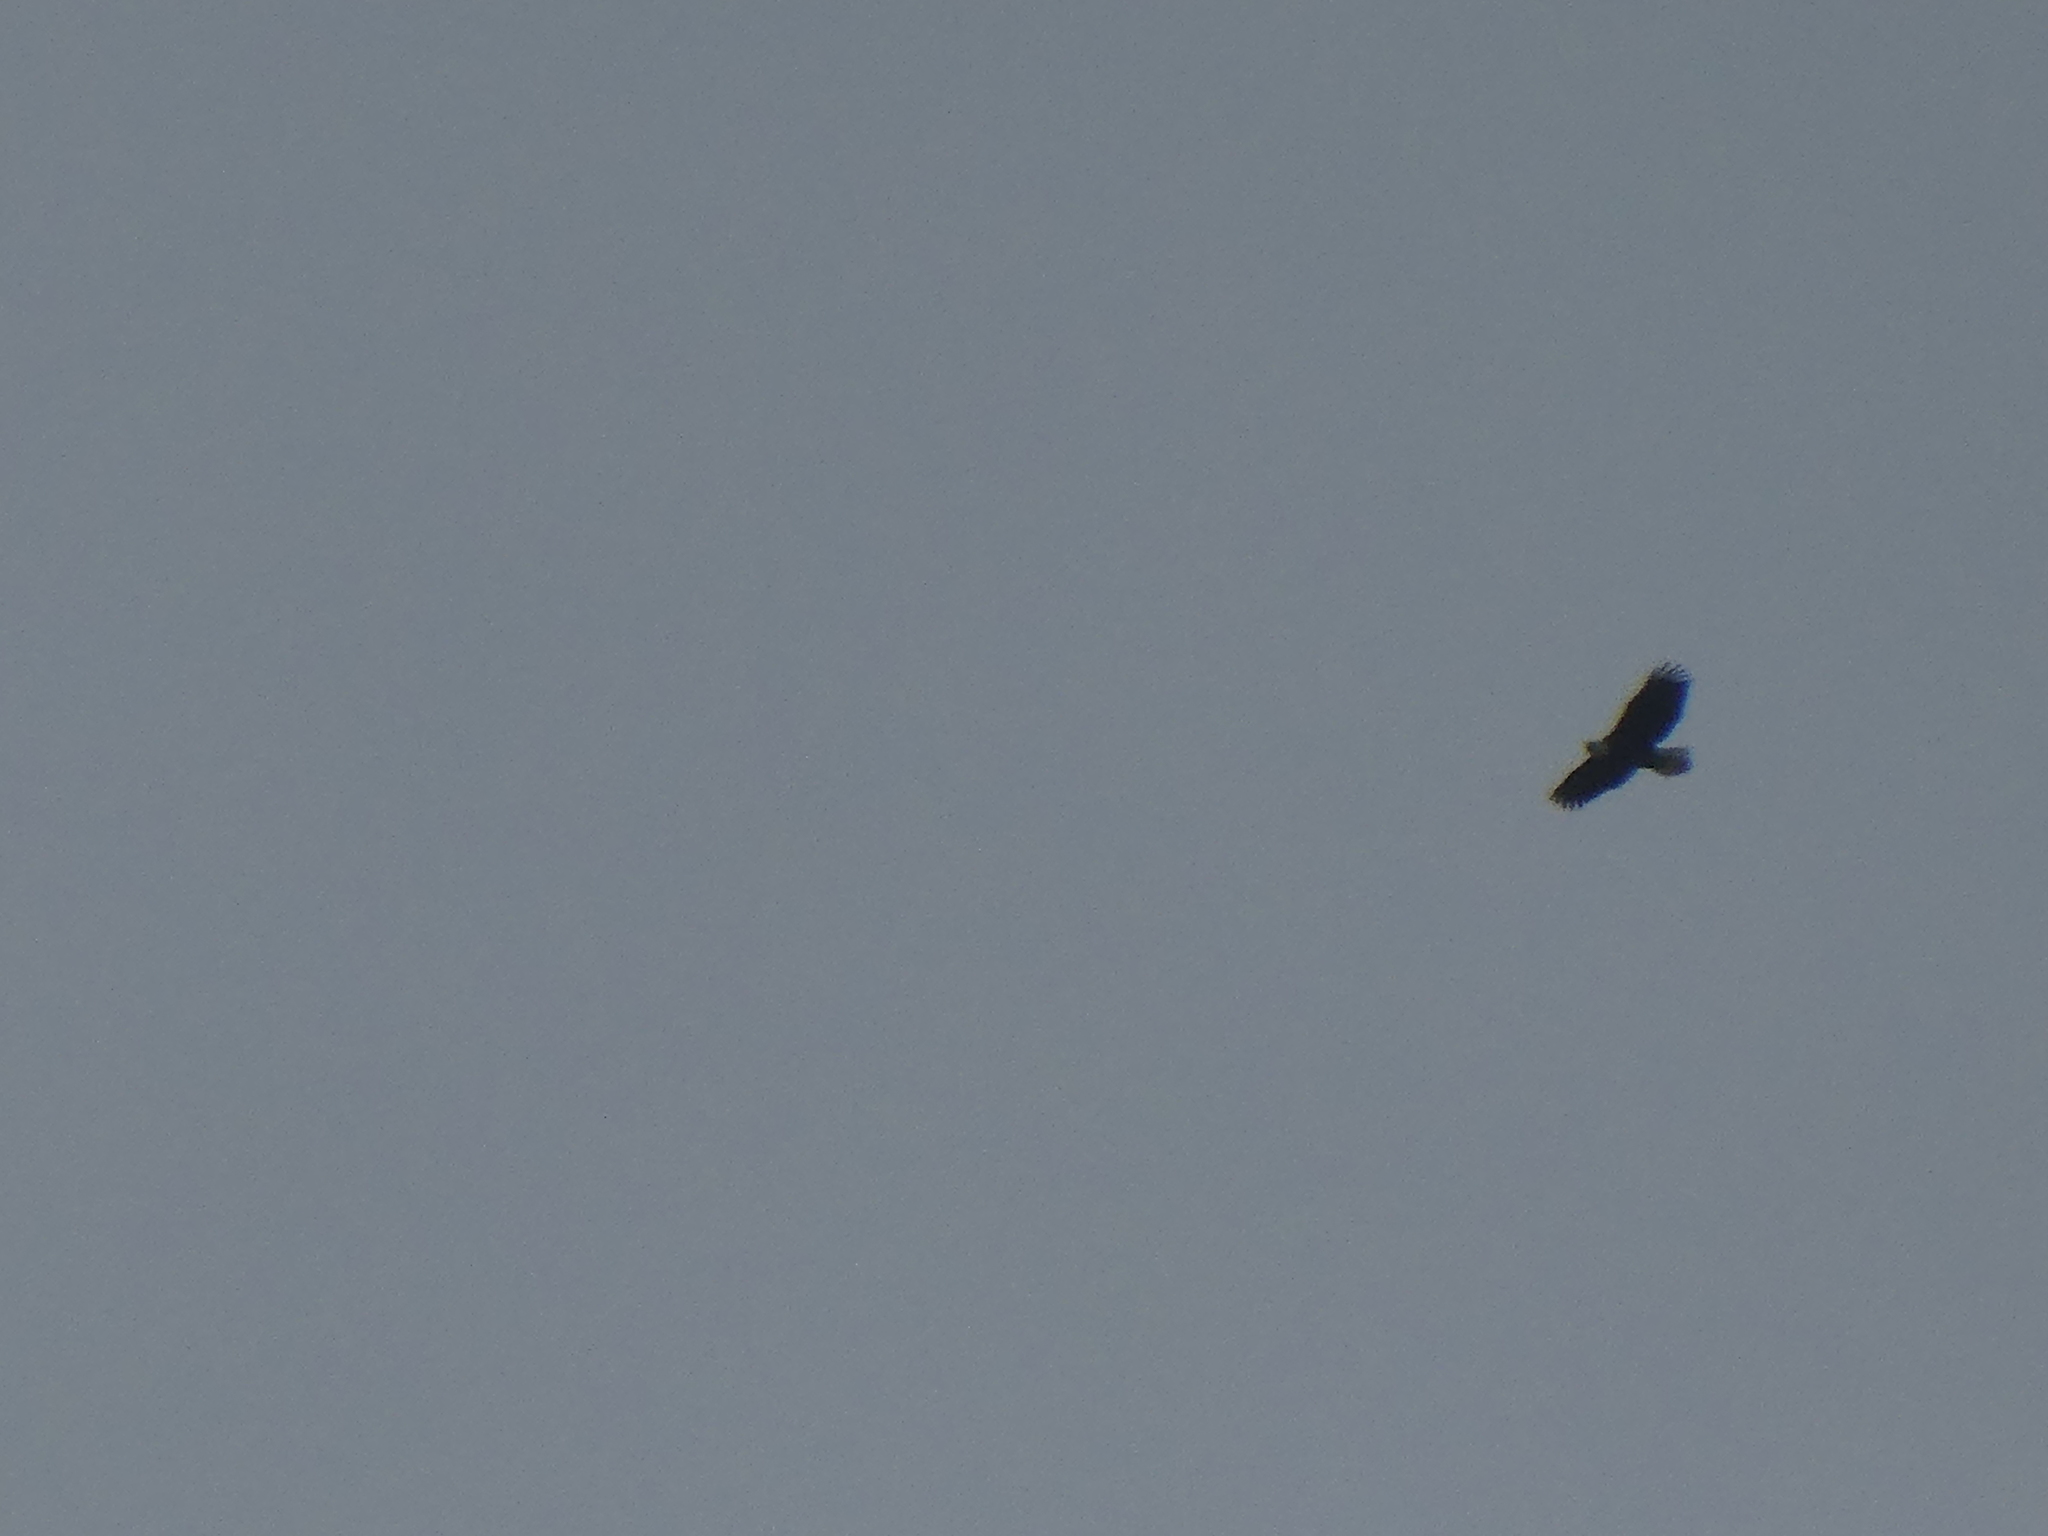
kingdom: Animalia
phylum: Chordata
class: Aves
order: Accipitriformes
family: Accipitridae
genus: Haliaeetus
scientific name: Haliaeetus leucocephalus
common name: Bald eagle
